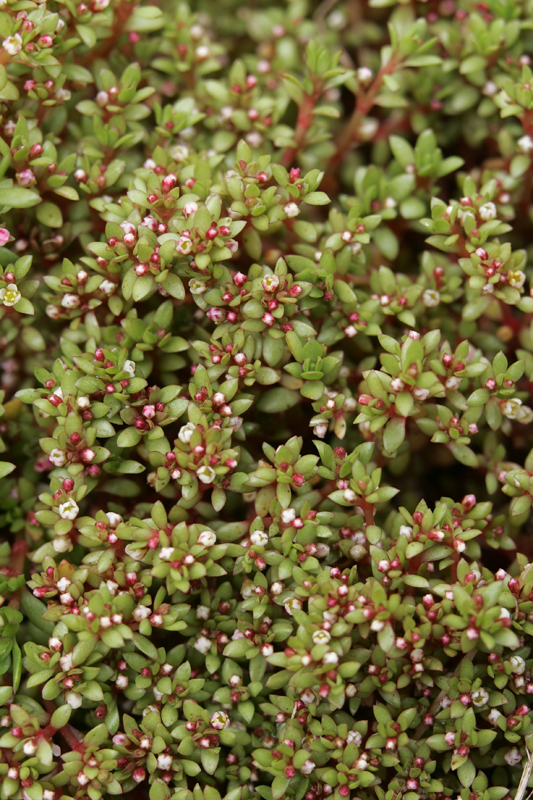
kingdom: Plantae
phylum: Tracheophyta
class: Magnoliopsida
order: Saxifragales
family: Crassulaceae
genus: Crassula
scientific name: Crassula moschata
